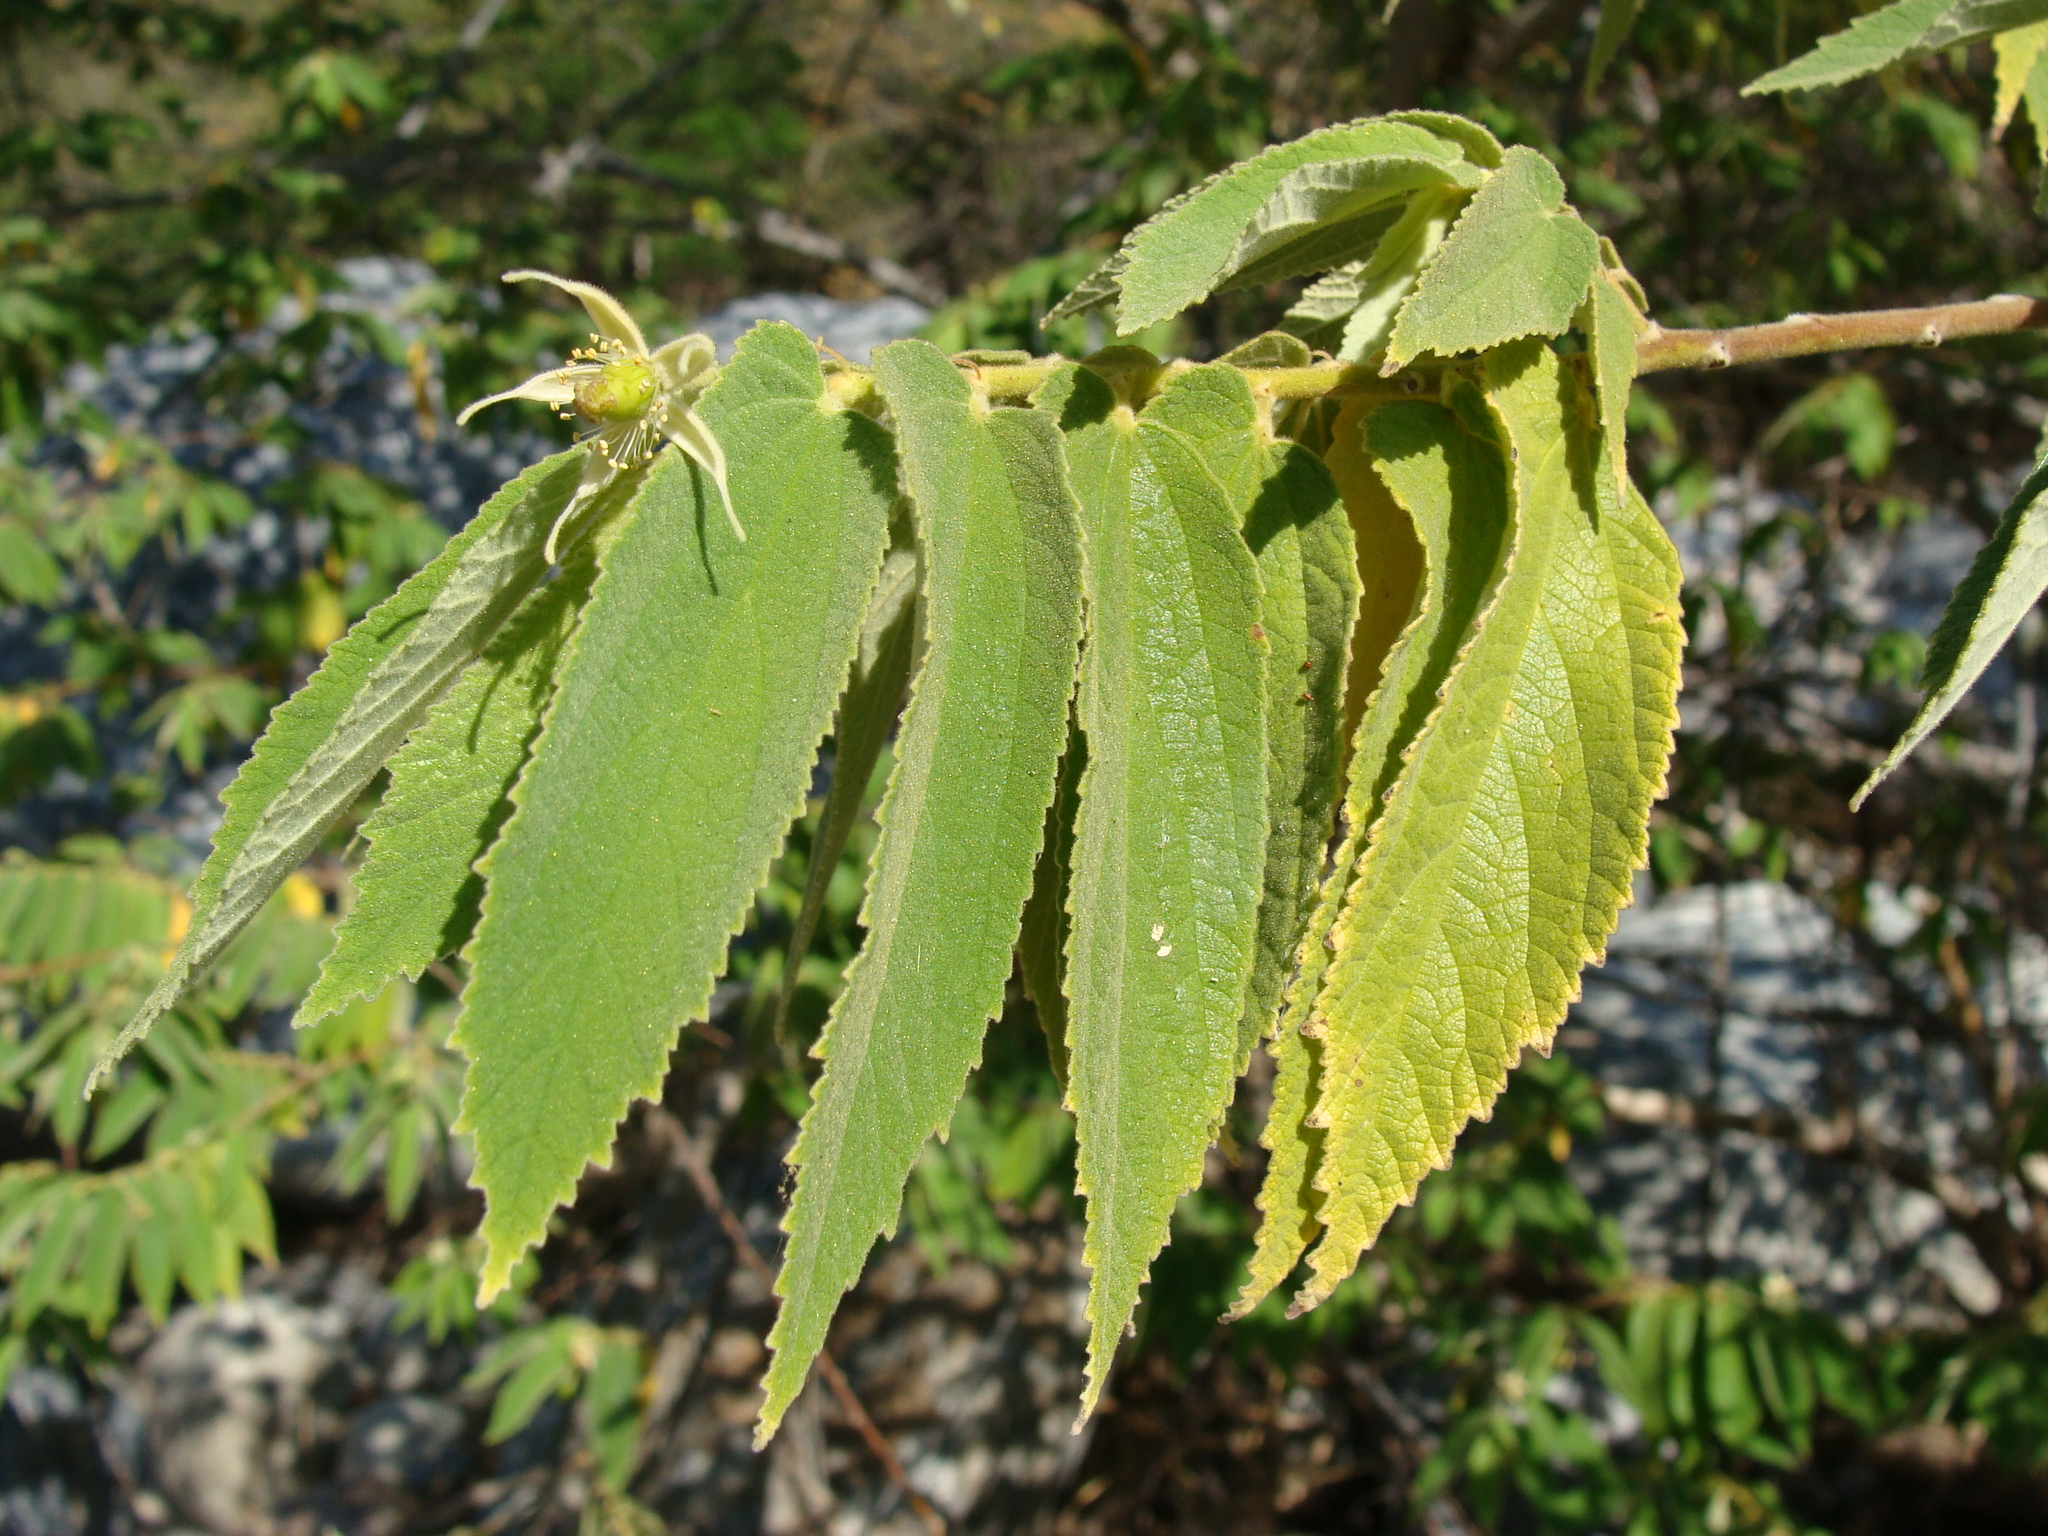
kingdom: Plantae
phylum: Tracheophyta
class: Magnoliopsida
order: Malvales
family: Muntingiaceae
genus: Muntingia
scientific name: Muntingia calabura
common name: Strawberrytree
